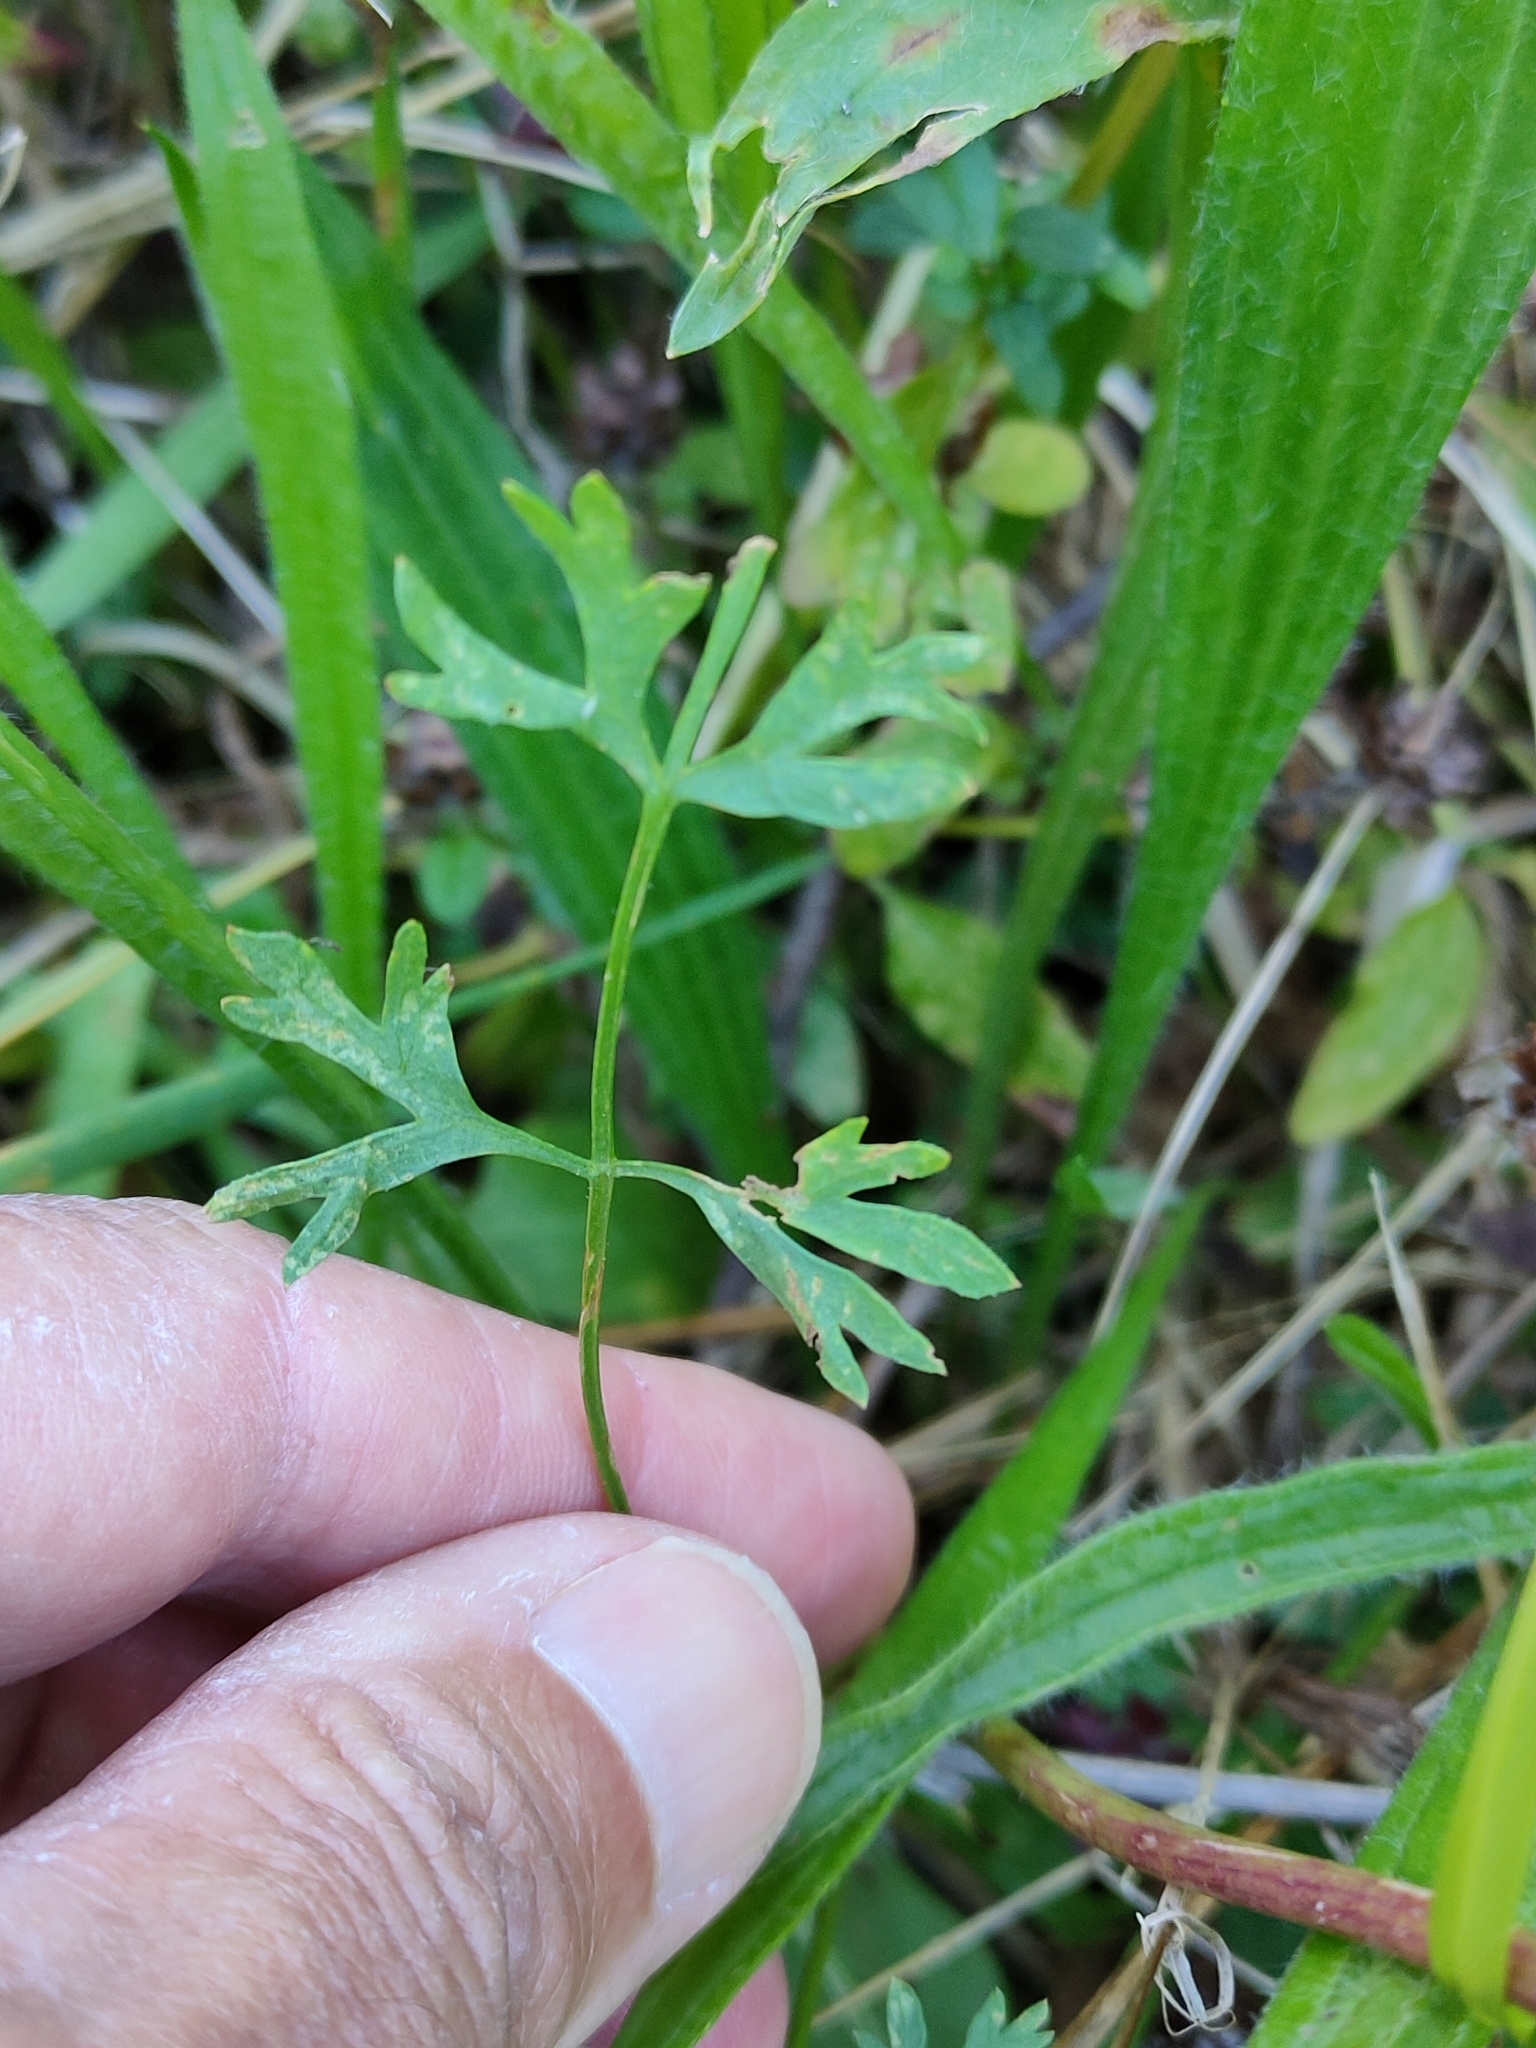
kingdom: Plantae
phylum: Tracheophyta
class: Magnoliopsida
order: Apiales
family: Apiaceae
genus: Daucus
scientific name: Daucus carota
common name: Wild carrot
